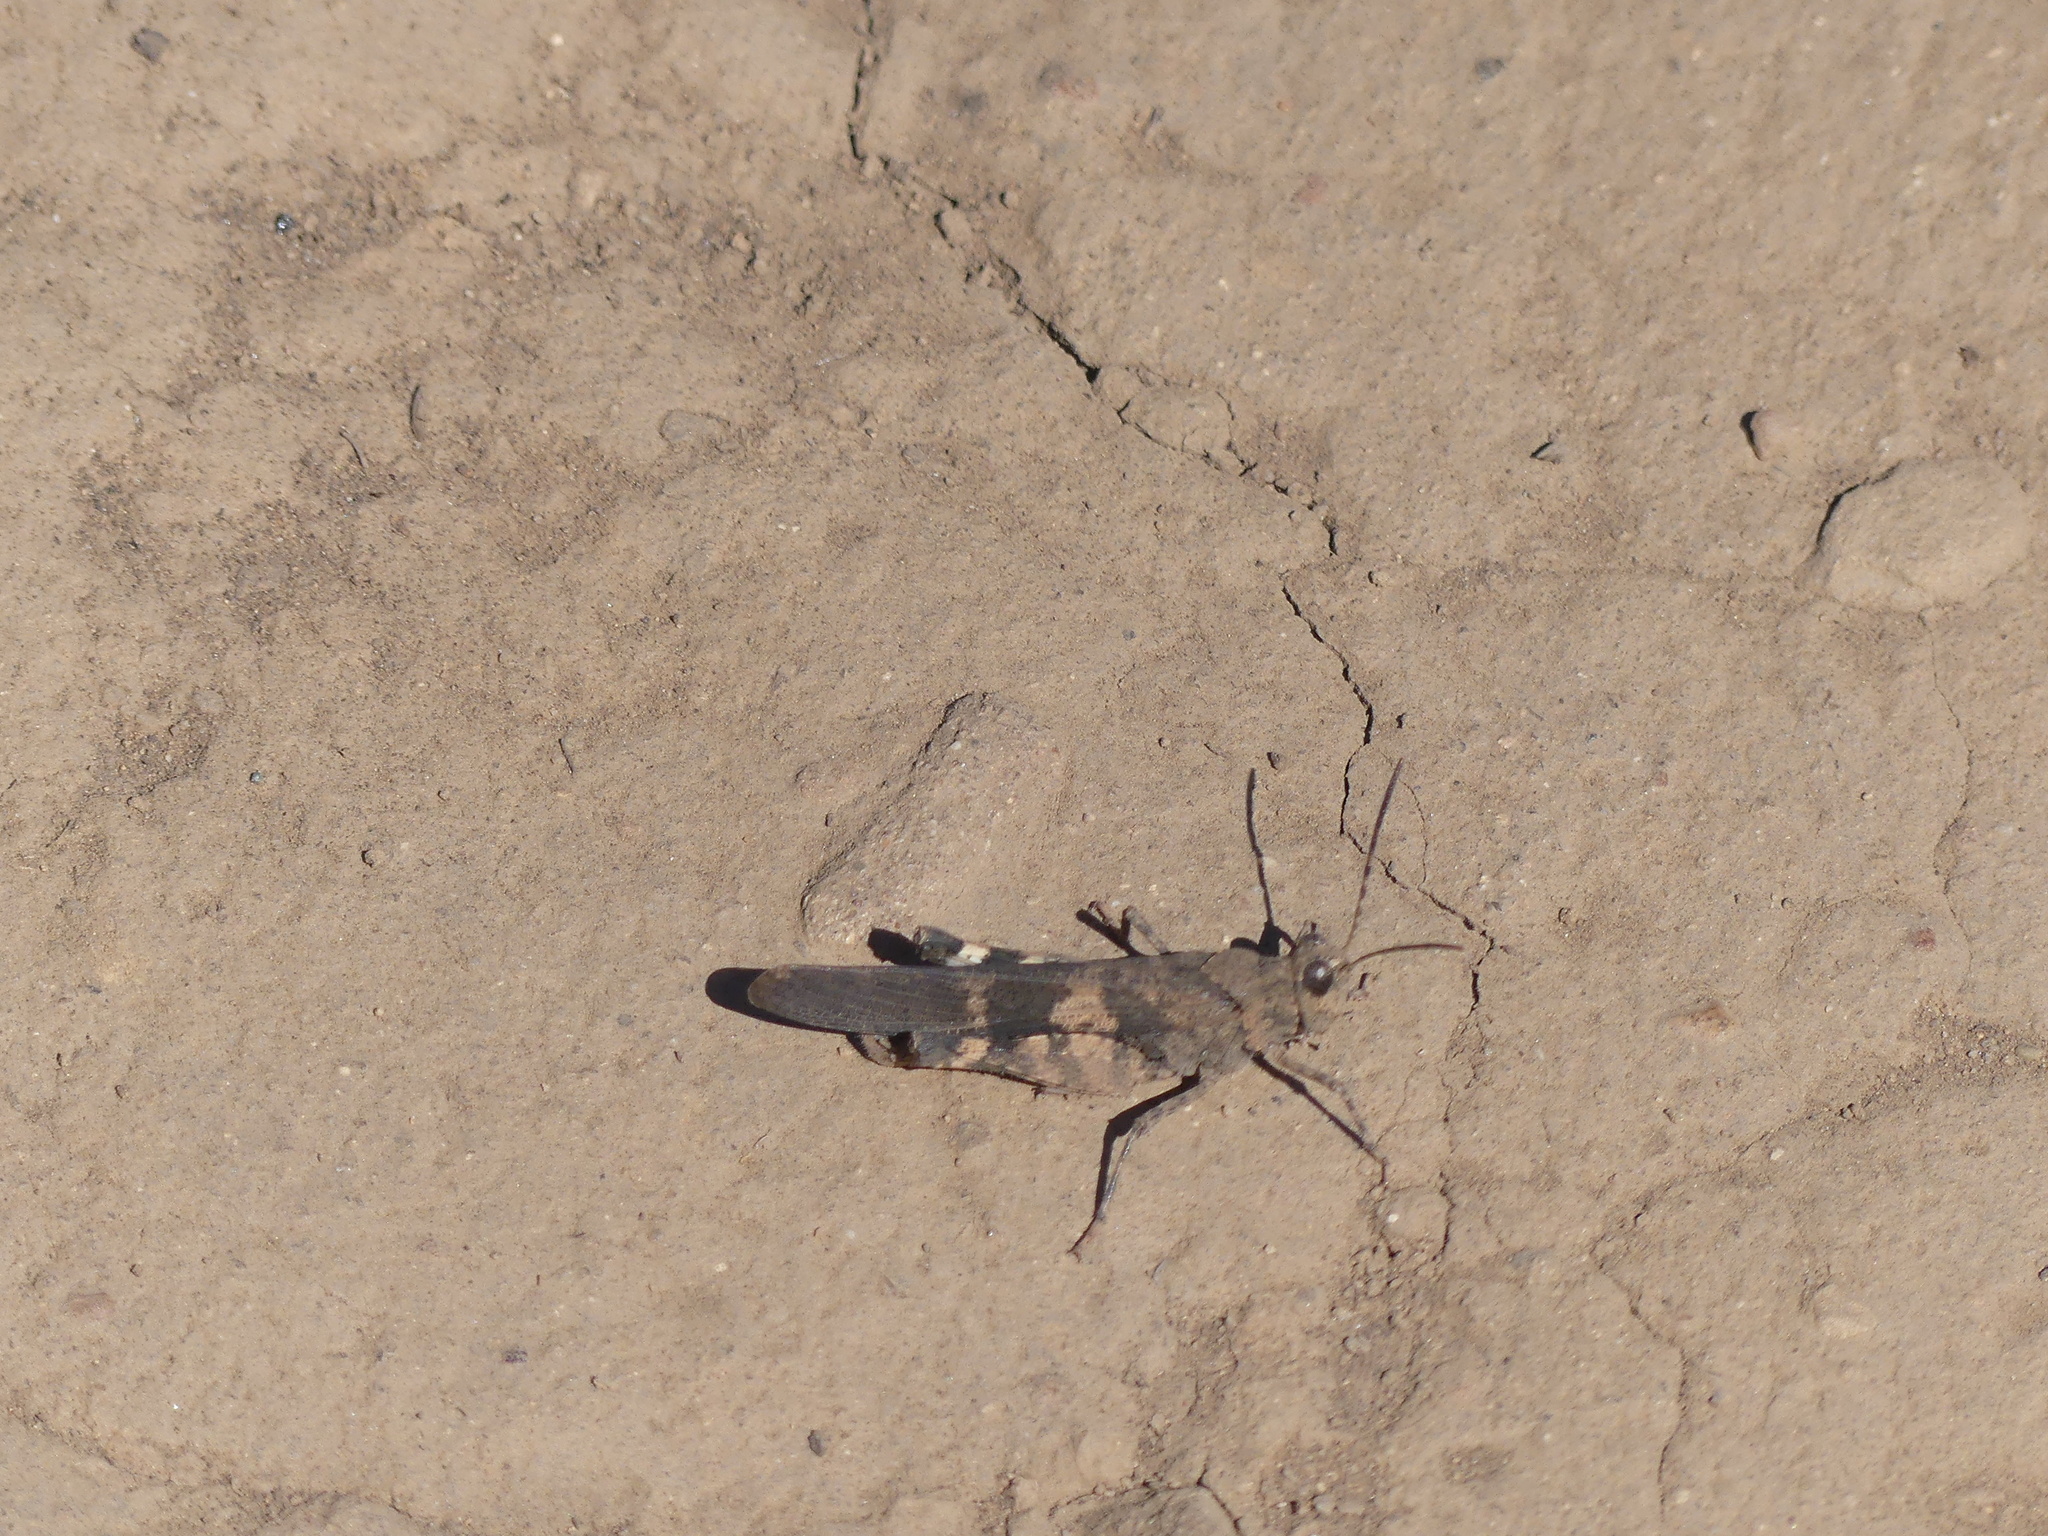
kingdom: Animalia
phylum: Arthropoda
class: Insecta
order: Orthoptera
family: Acrididae
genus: Trimerotropis
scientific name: Trimerotropis fontana
